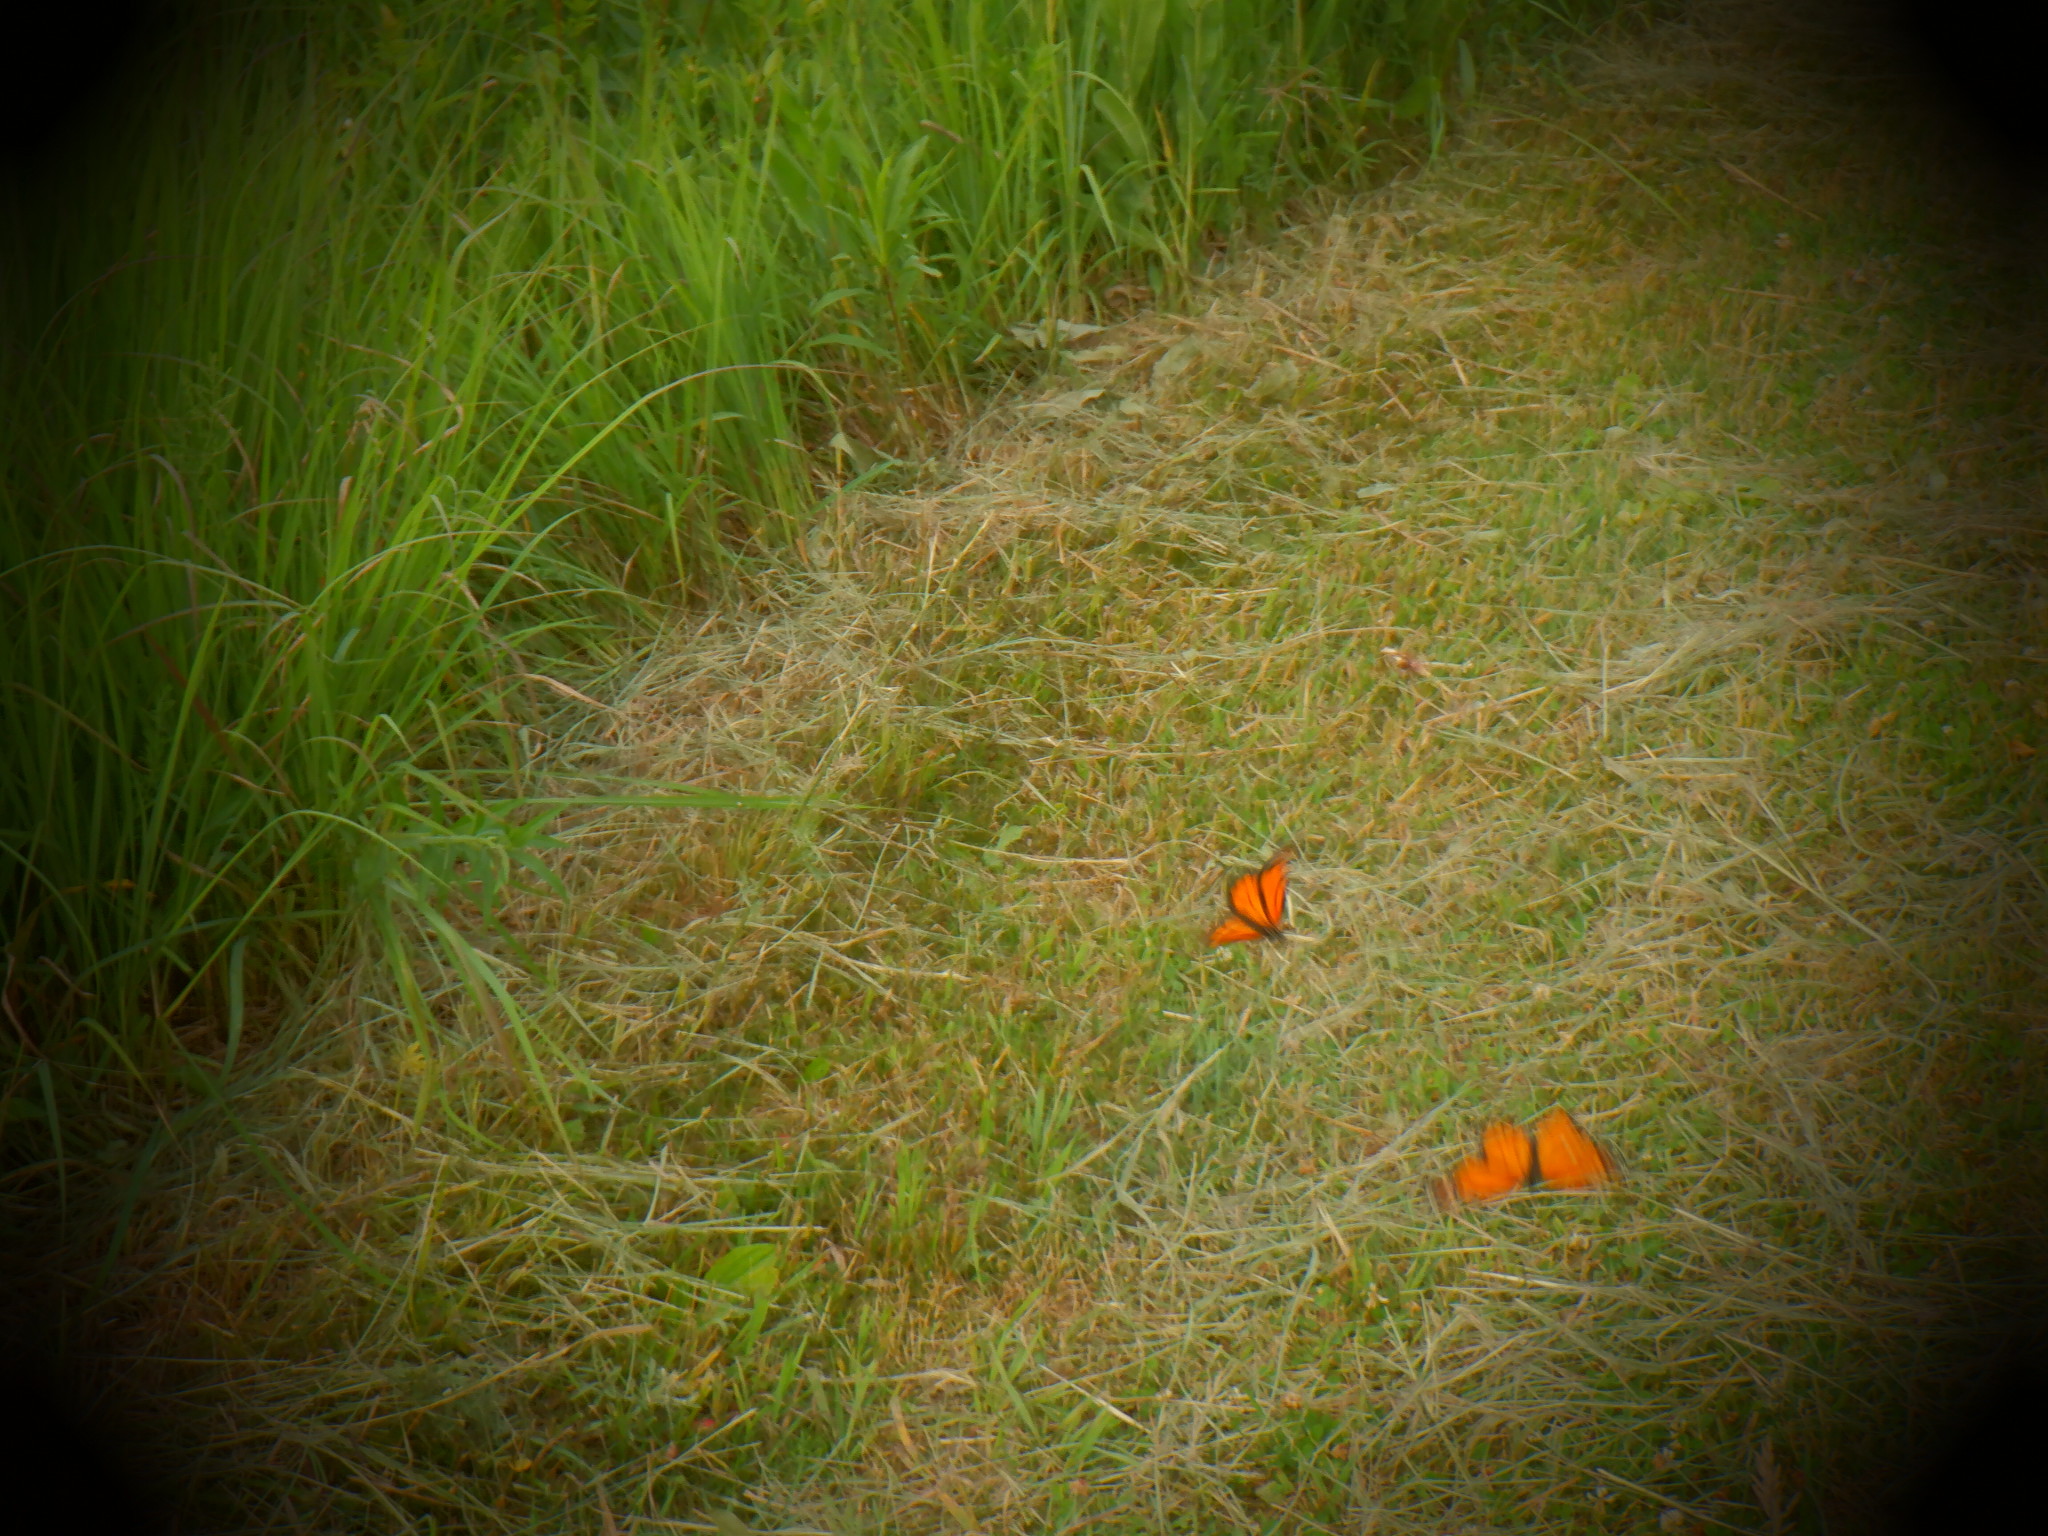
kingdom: Animalia
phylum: Arthropoda
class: Insecta
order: Lepidoptera
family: Nymphalidae
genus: Danaus
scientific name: Danaus plexippus
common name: Monarch
